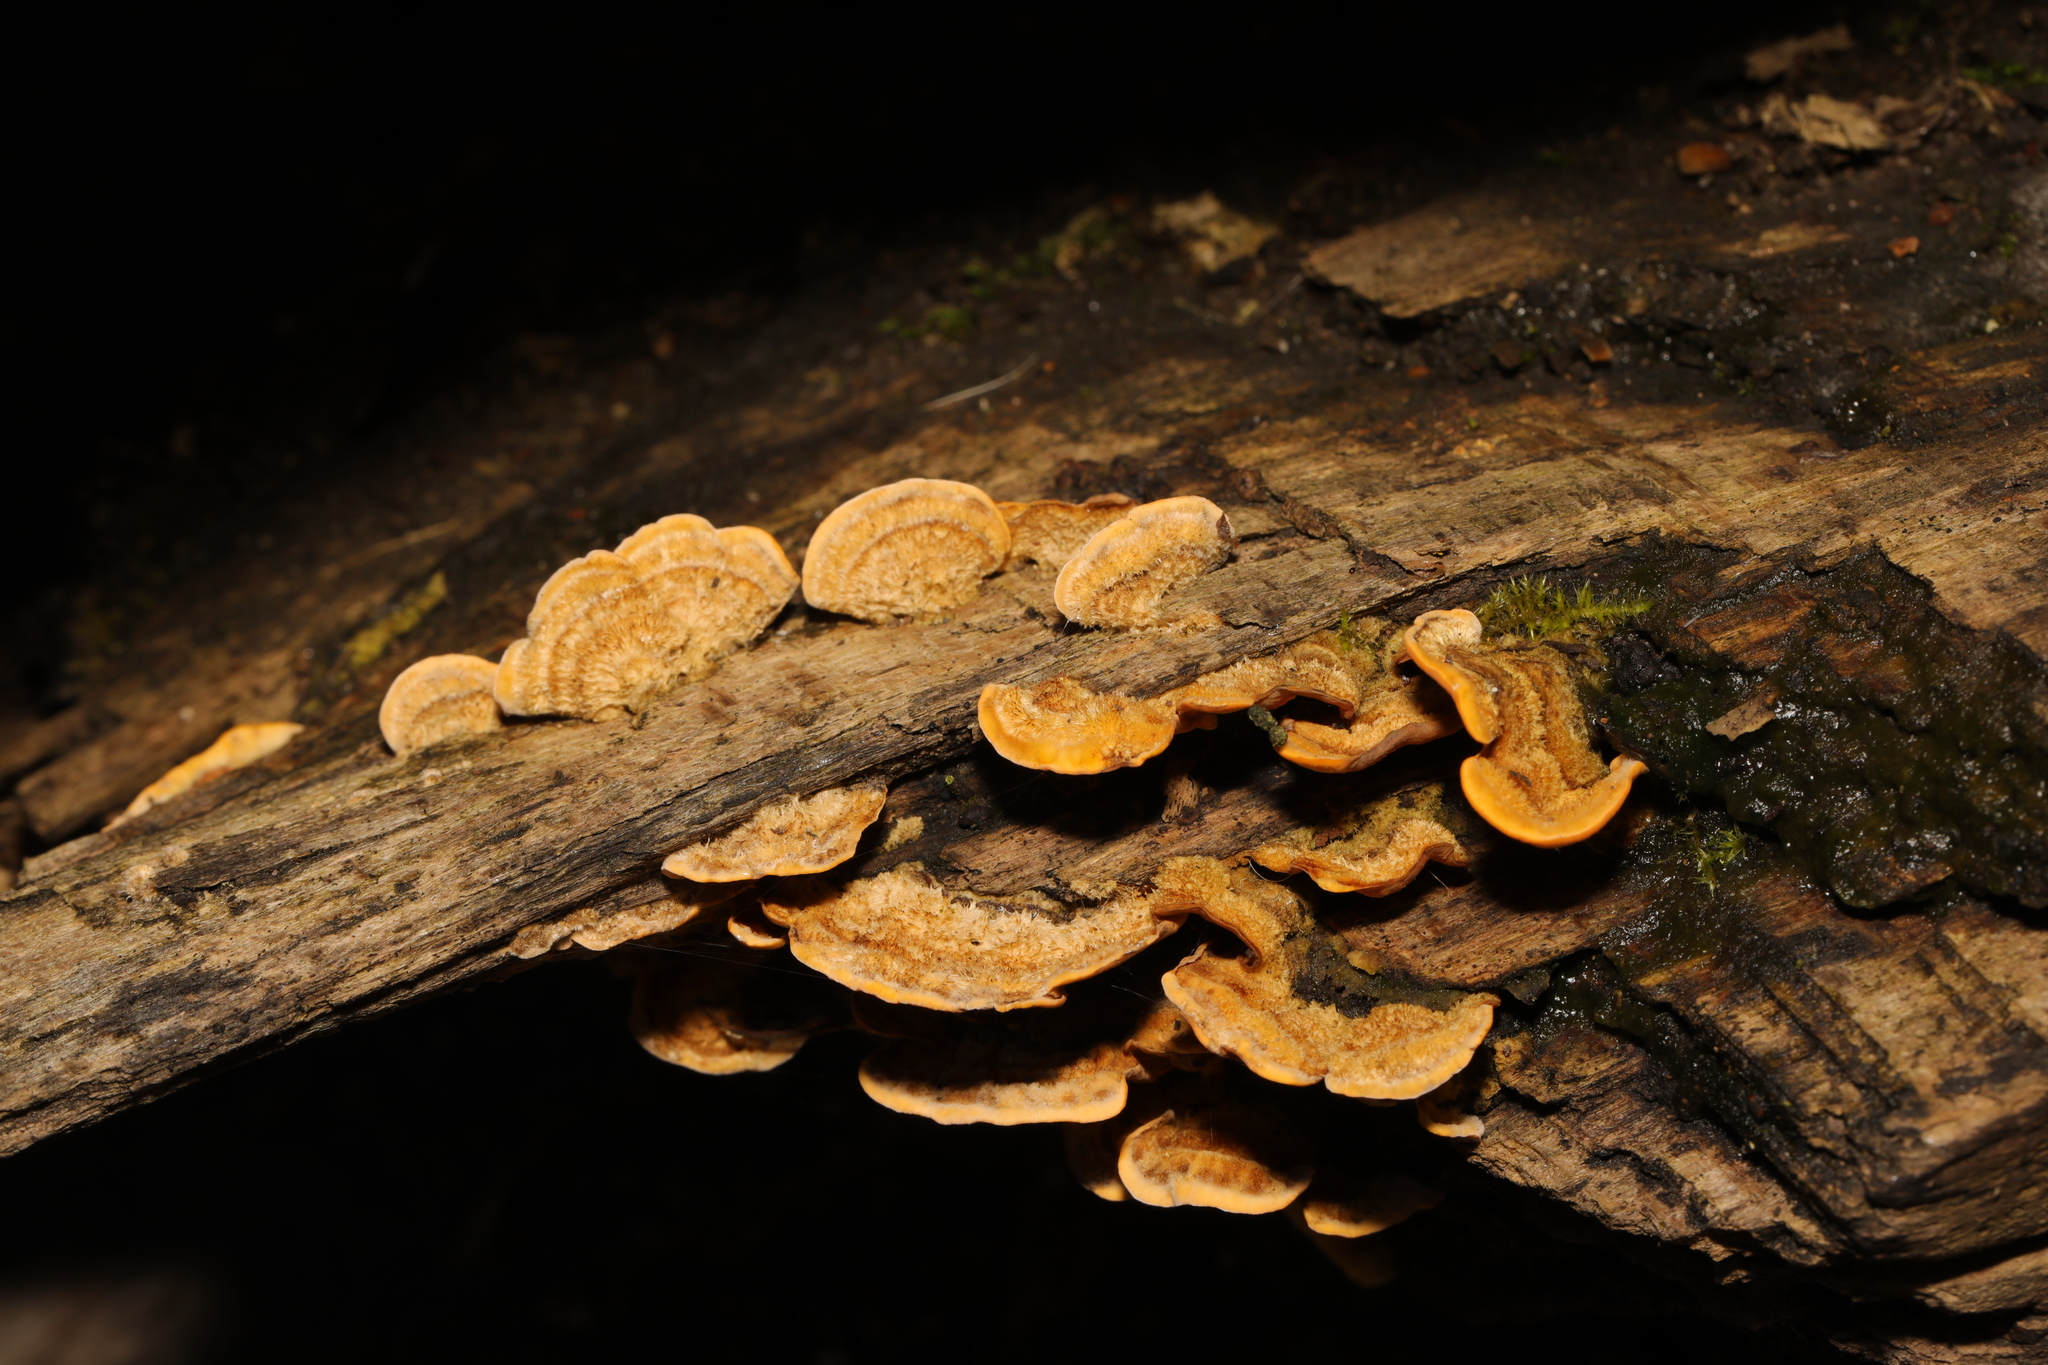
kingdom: Fungi
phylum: Basidiomycota
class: Agaricomycetes
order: Russulales
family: Stereaceae
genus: Stereum
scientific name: Stereum hirsutum
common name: Hairy curtain crust
